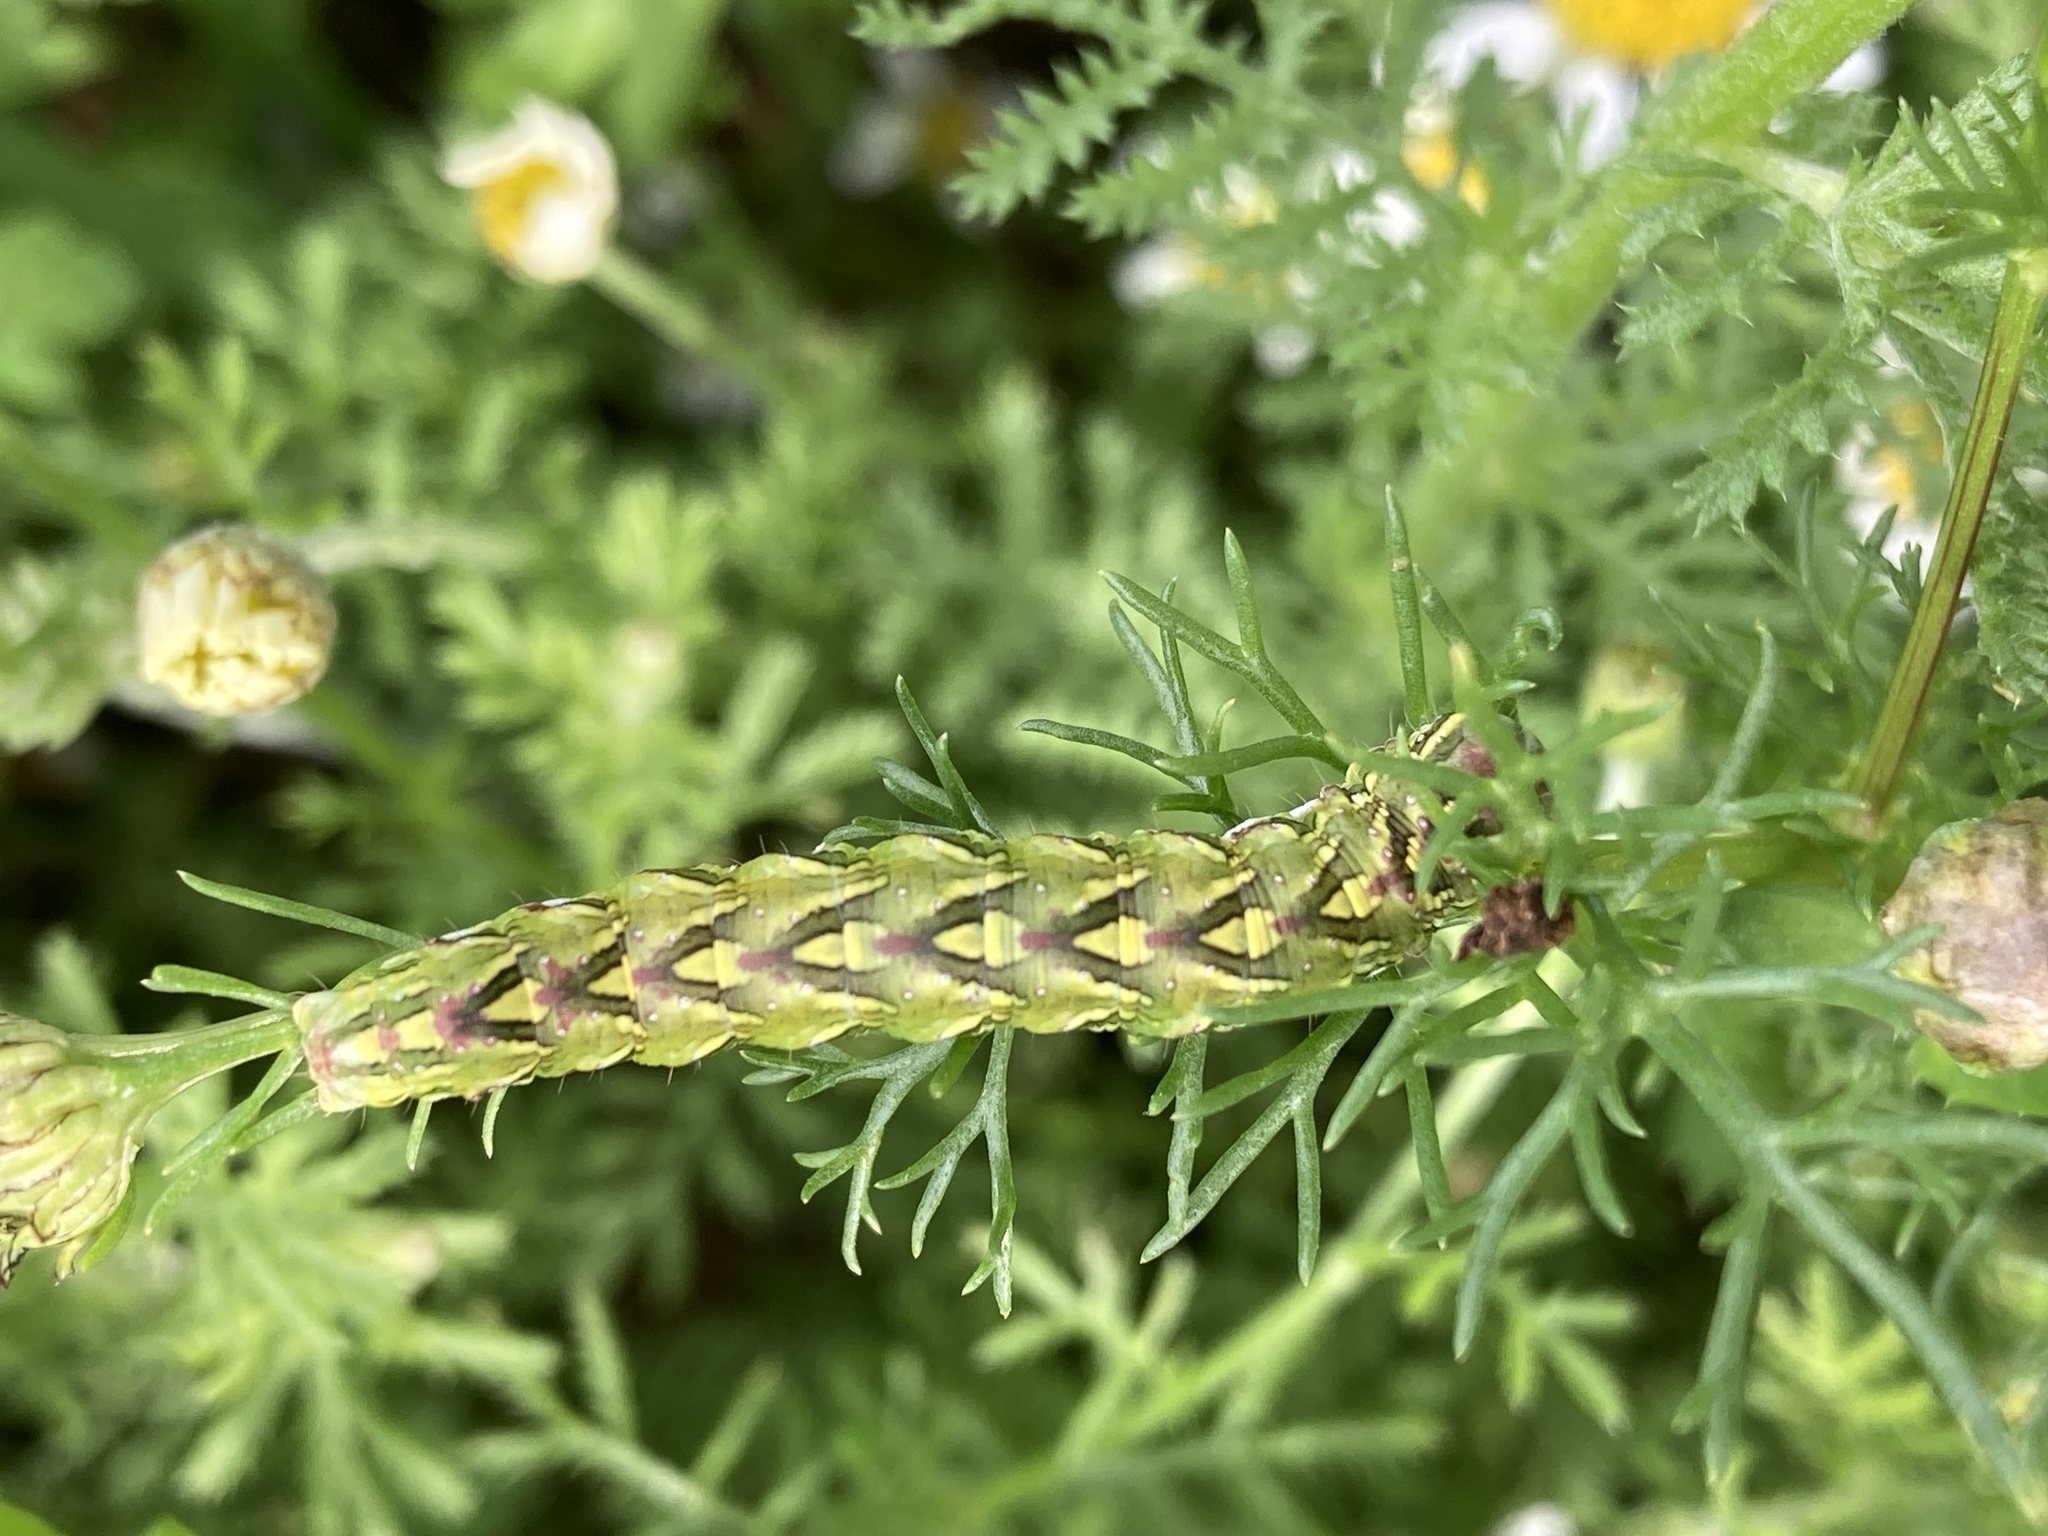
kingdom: Animalia
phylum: Arthropoda
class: Insecta
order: Lepidoptera
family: Noctuidae
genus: Cucullia
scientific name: Cucullia chamomillae
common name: Chamomile shark
